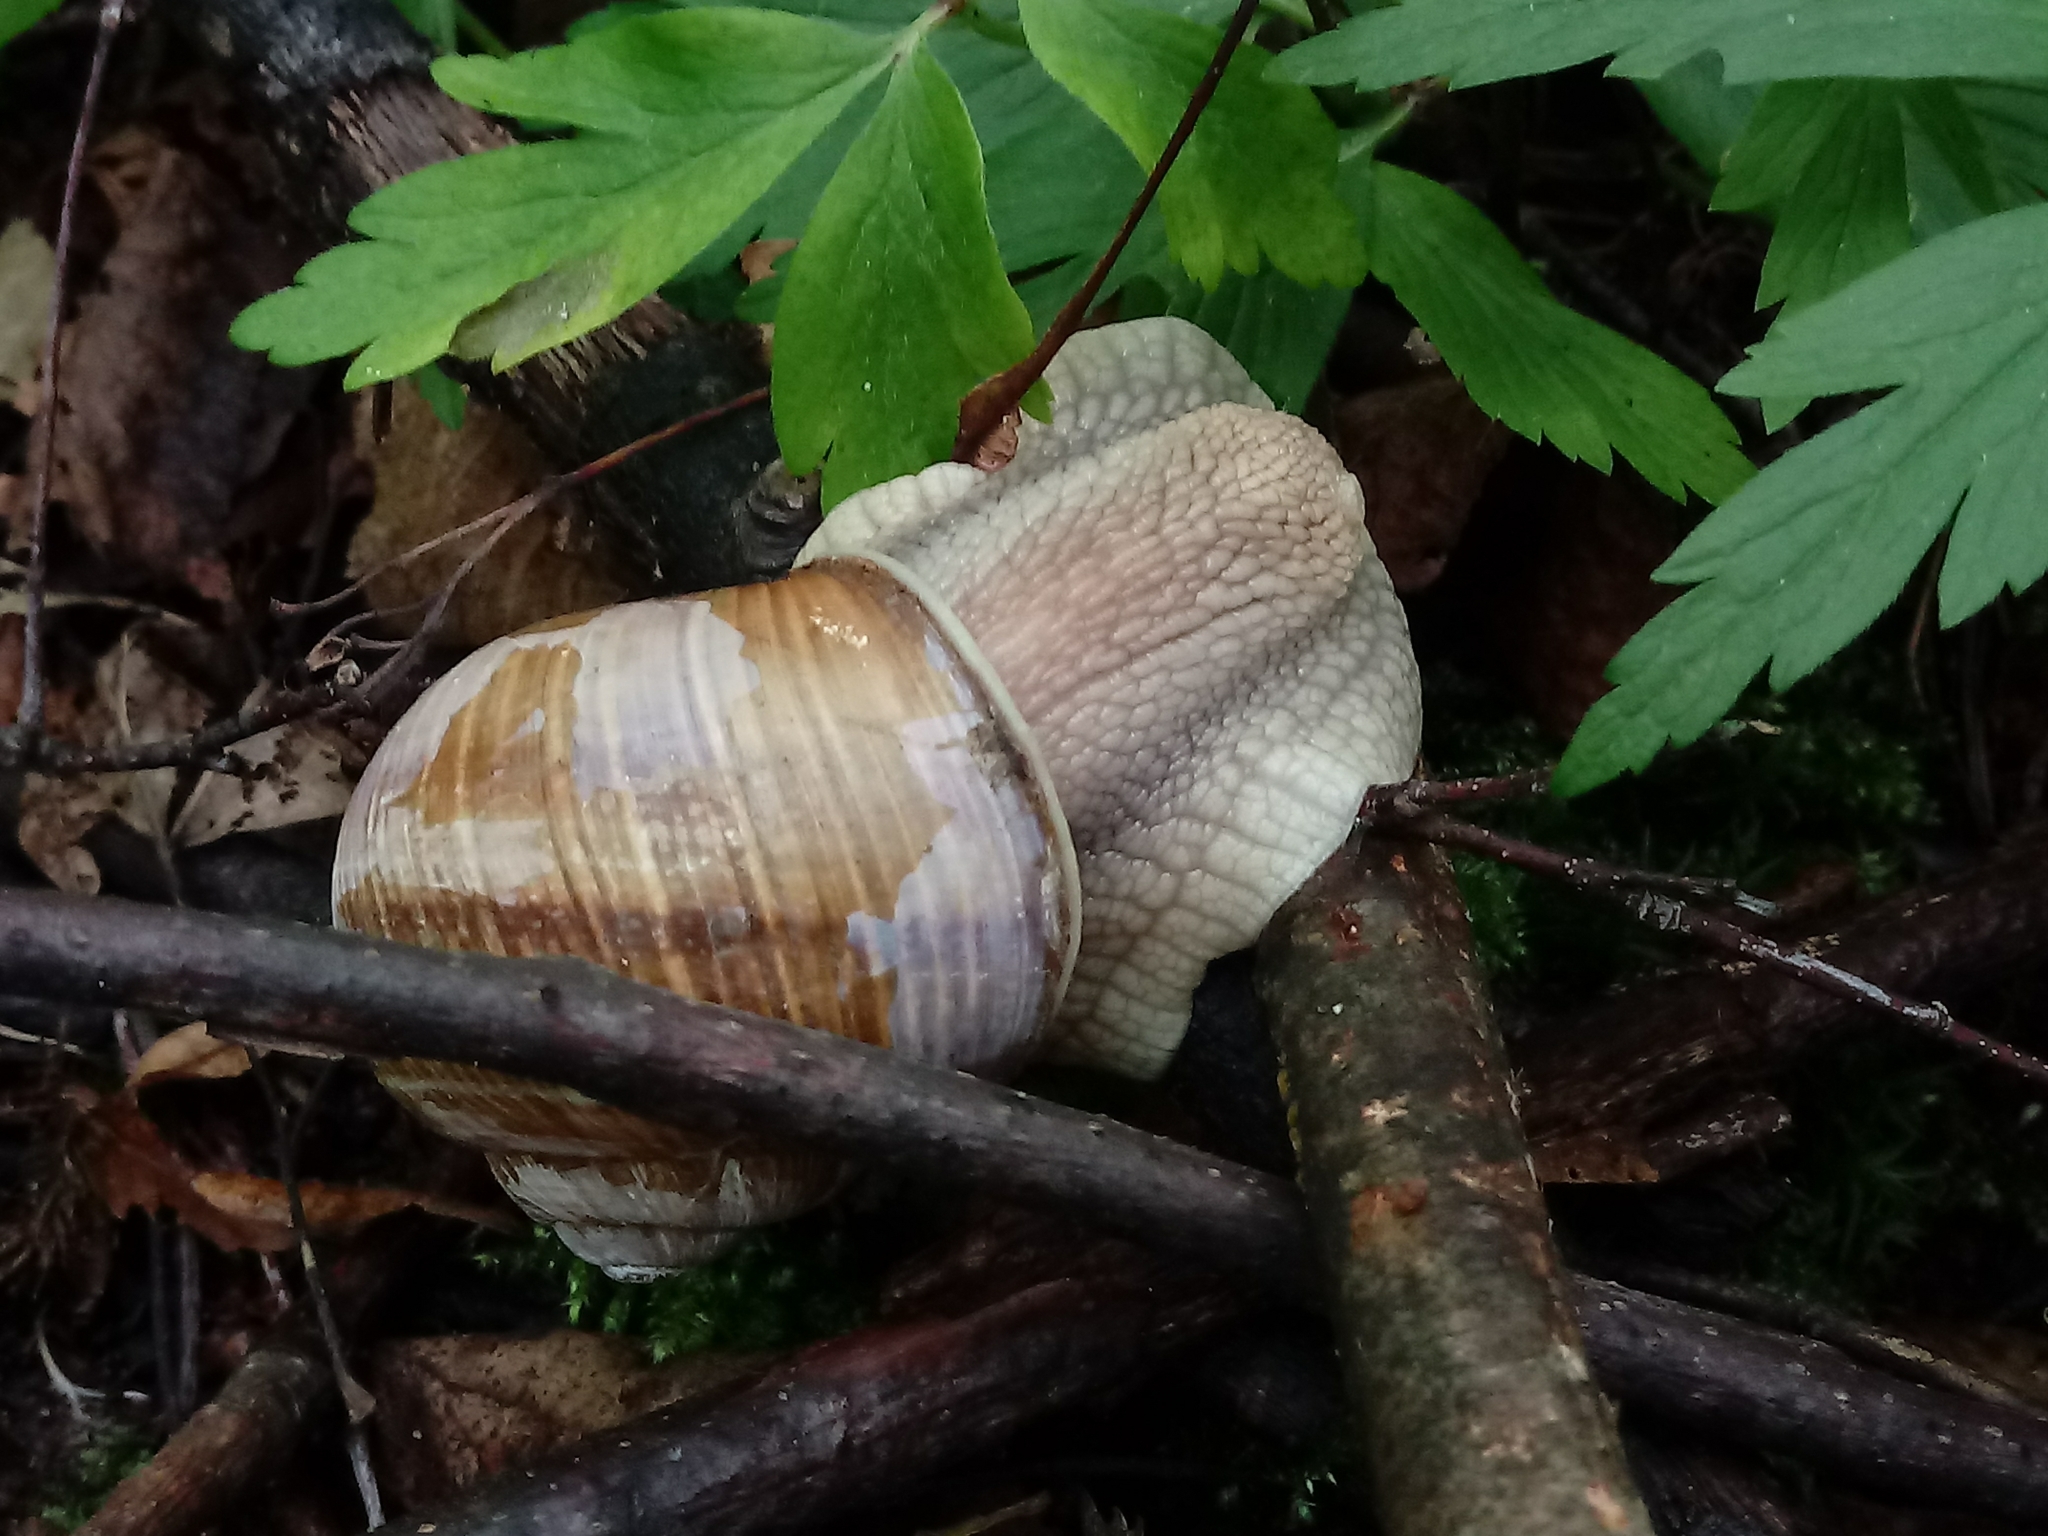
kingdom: Animalia
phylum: Mollusca
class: Gastropoda
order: Stylommatophora
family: Helicidae
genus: Helix
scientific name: Helix pomatia
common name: Roman snail
